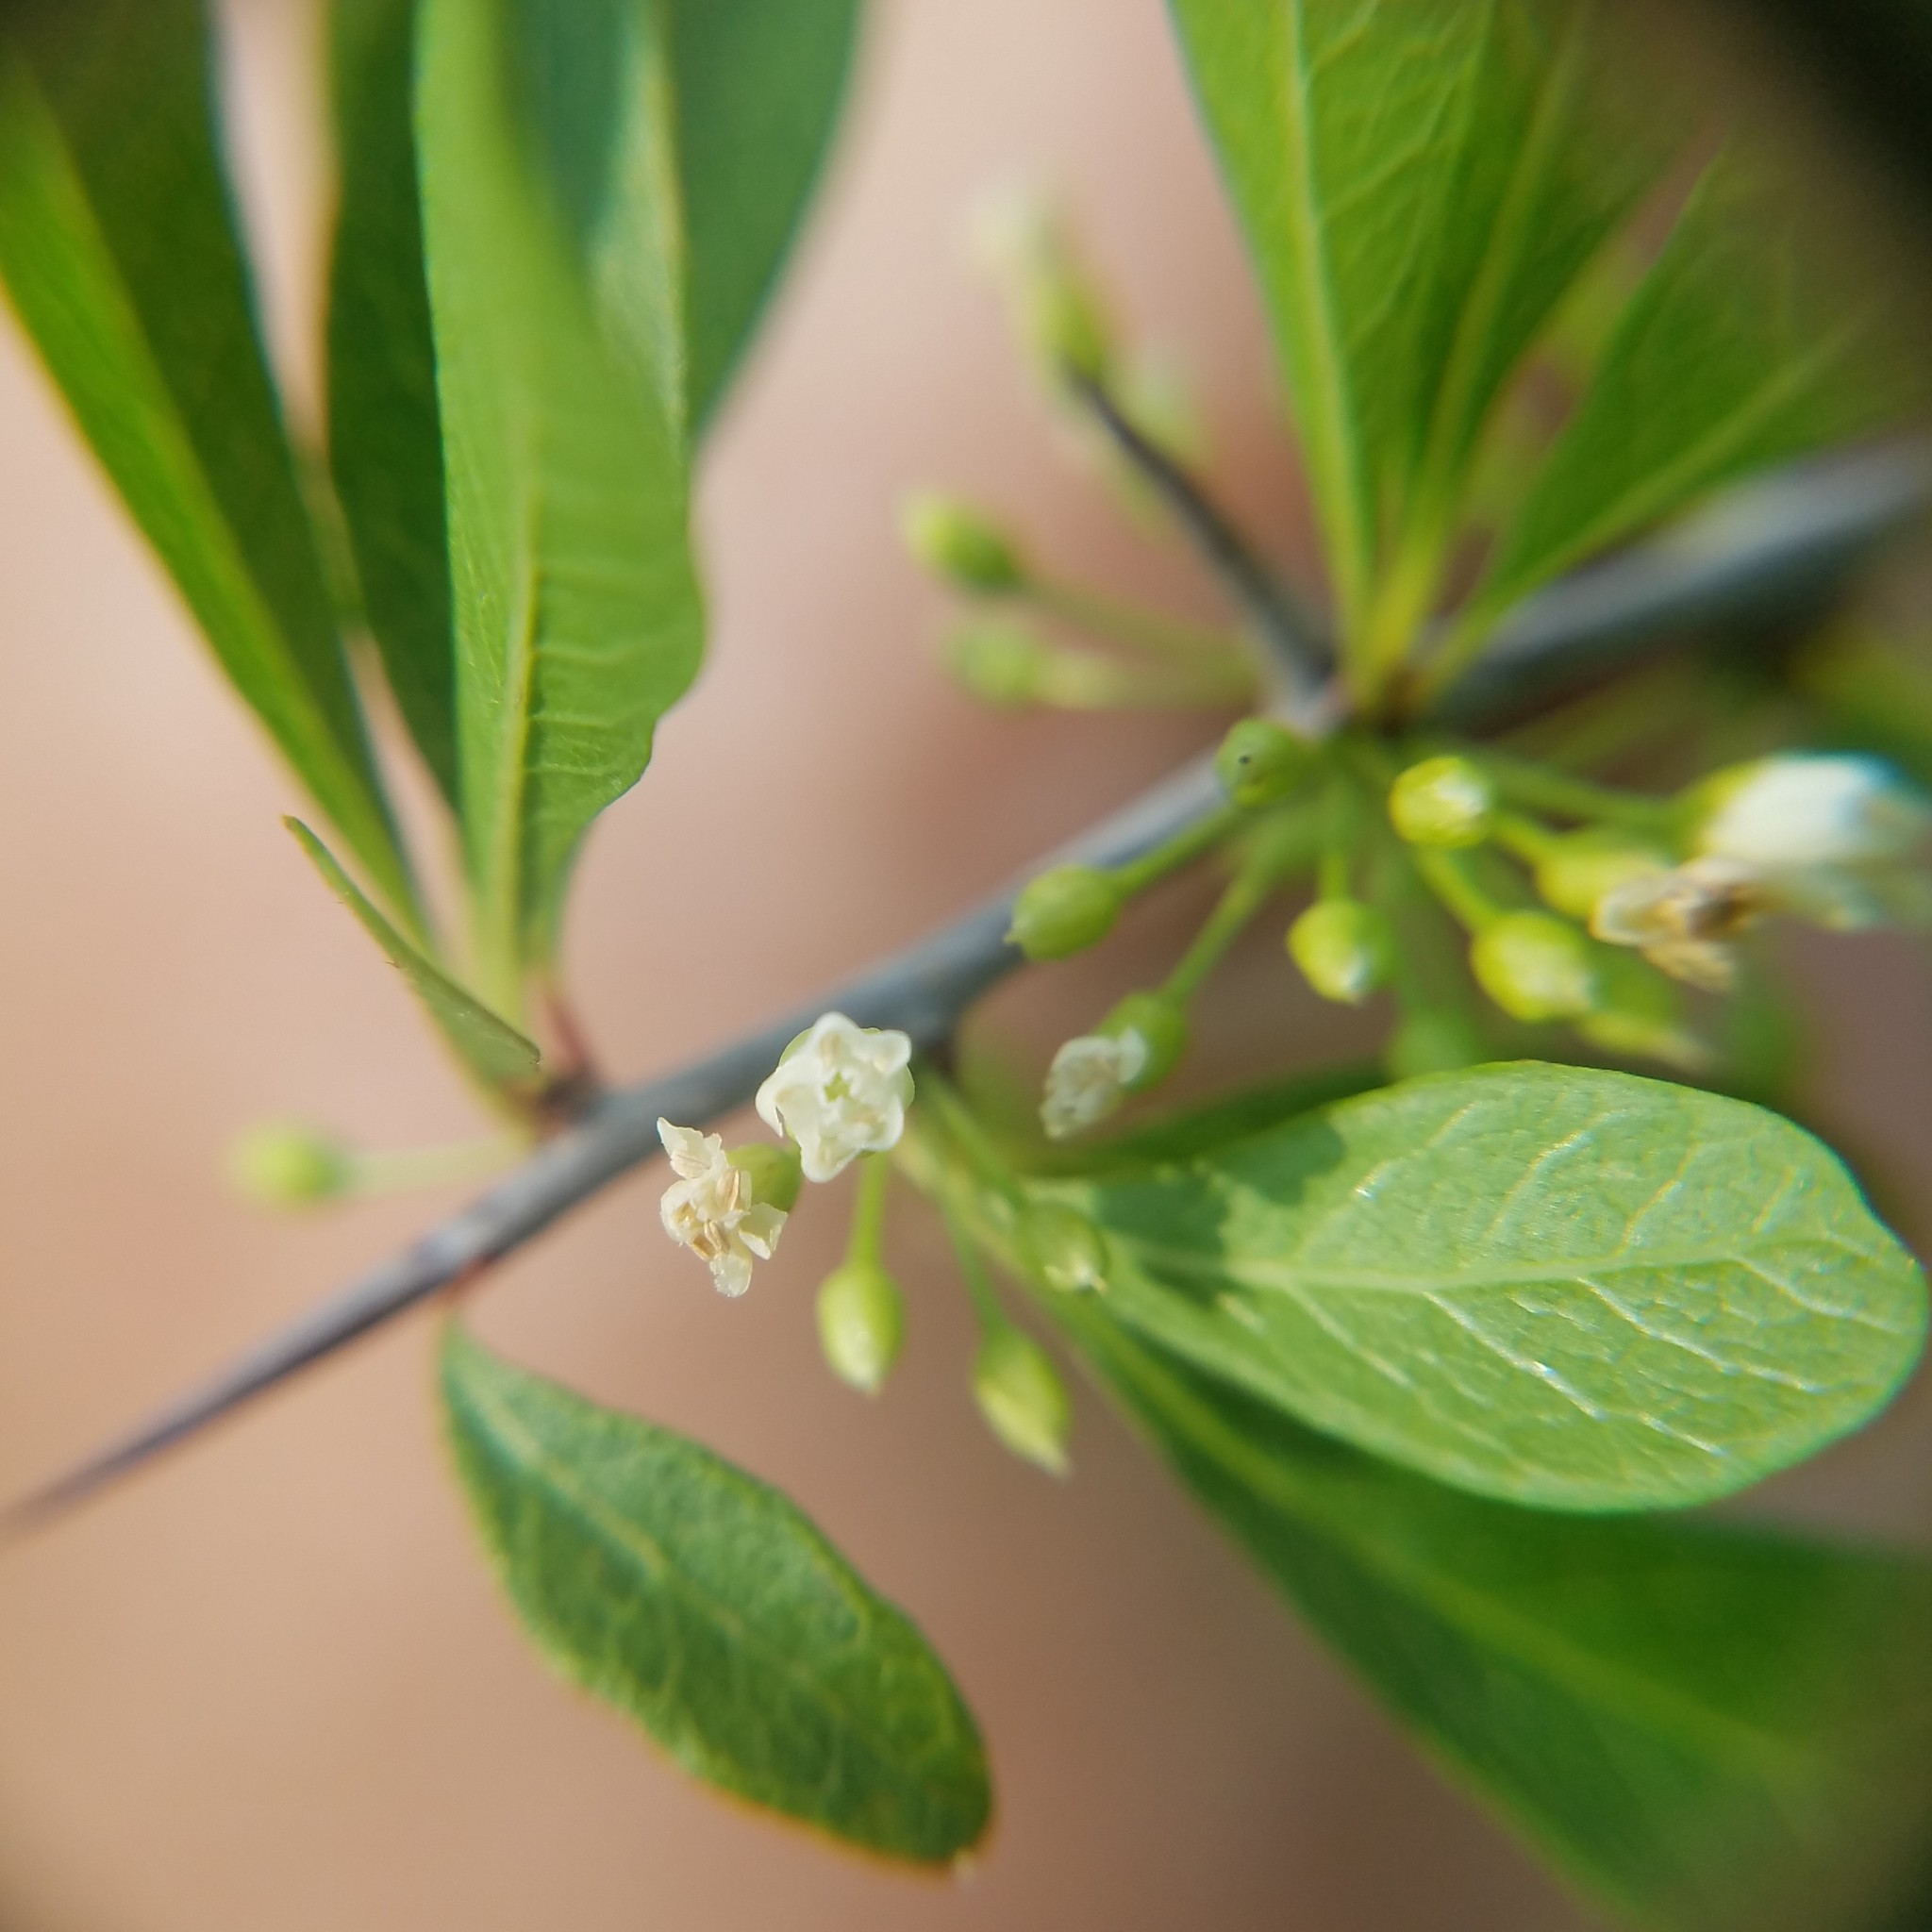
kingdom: Plantae
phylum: Tracheophyta
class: Magnoliopsida
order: Ericales
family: Sapotaceae
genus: Sideroxylon
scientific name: Sideroxylon reclinatum
